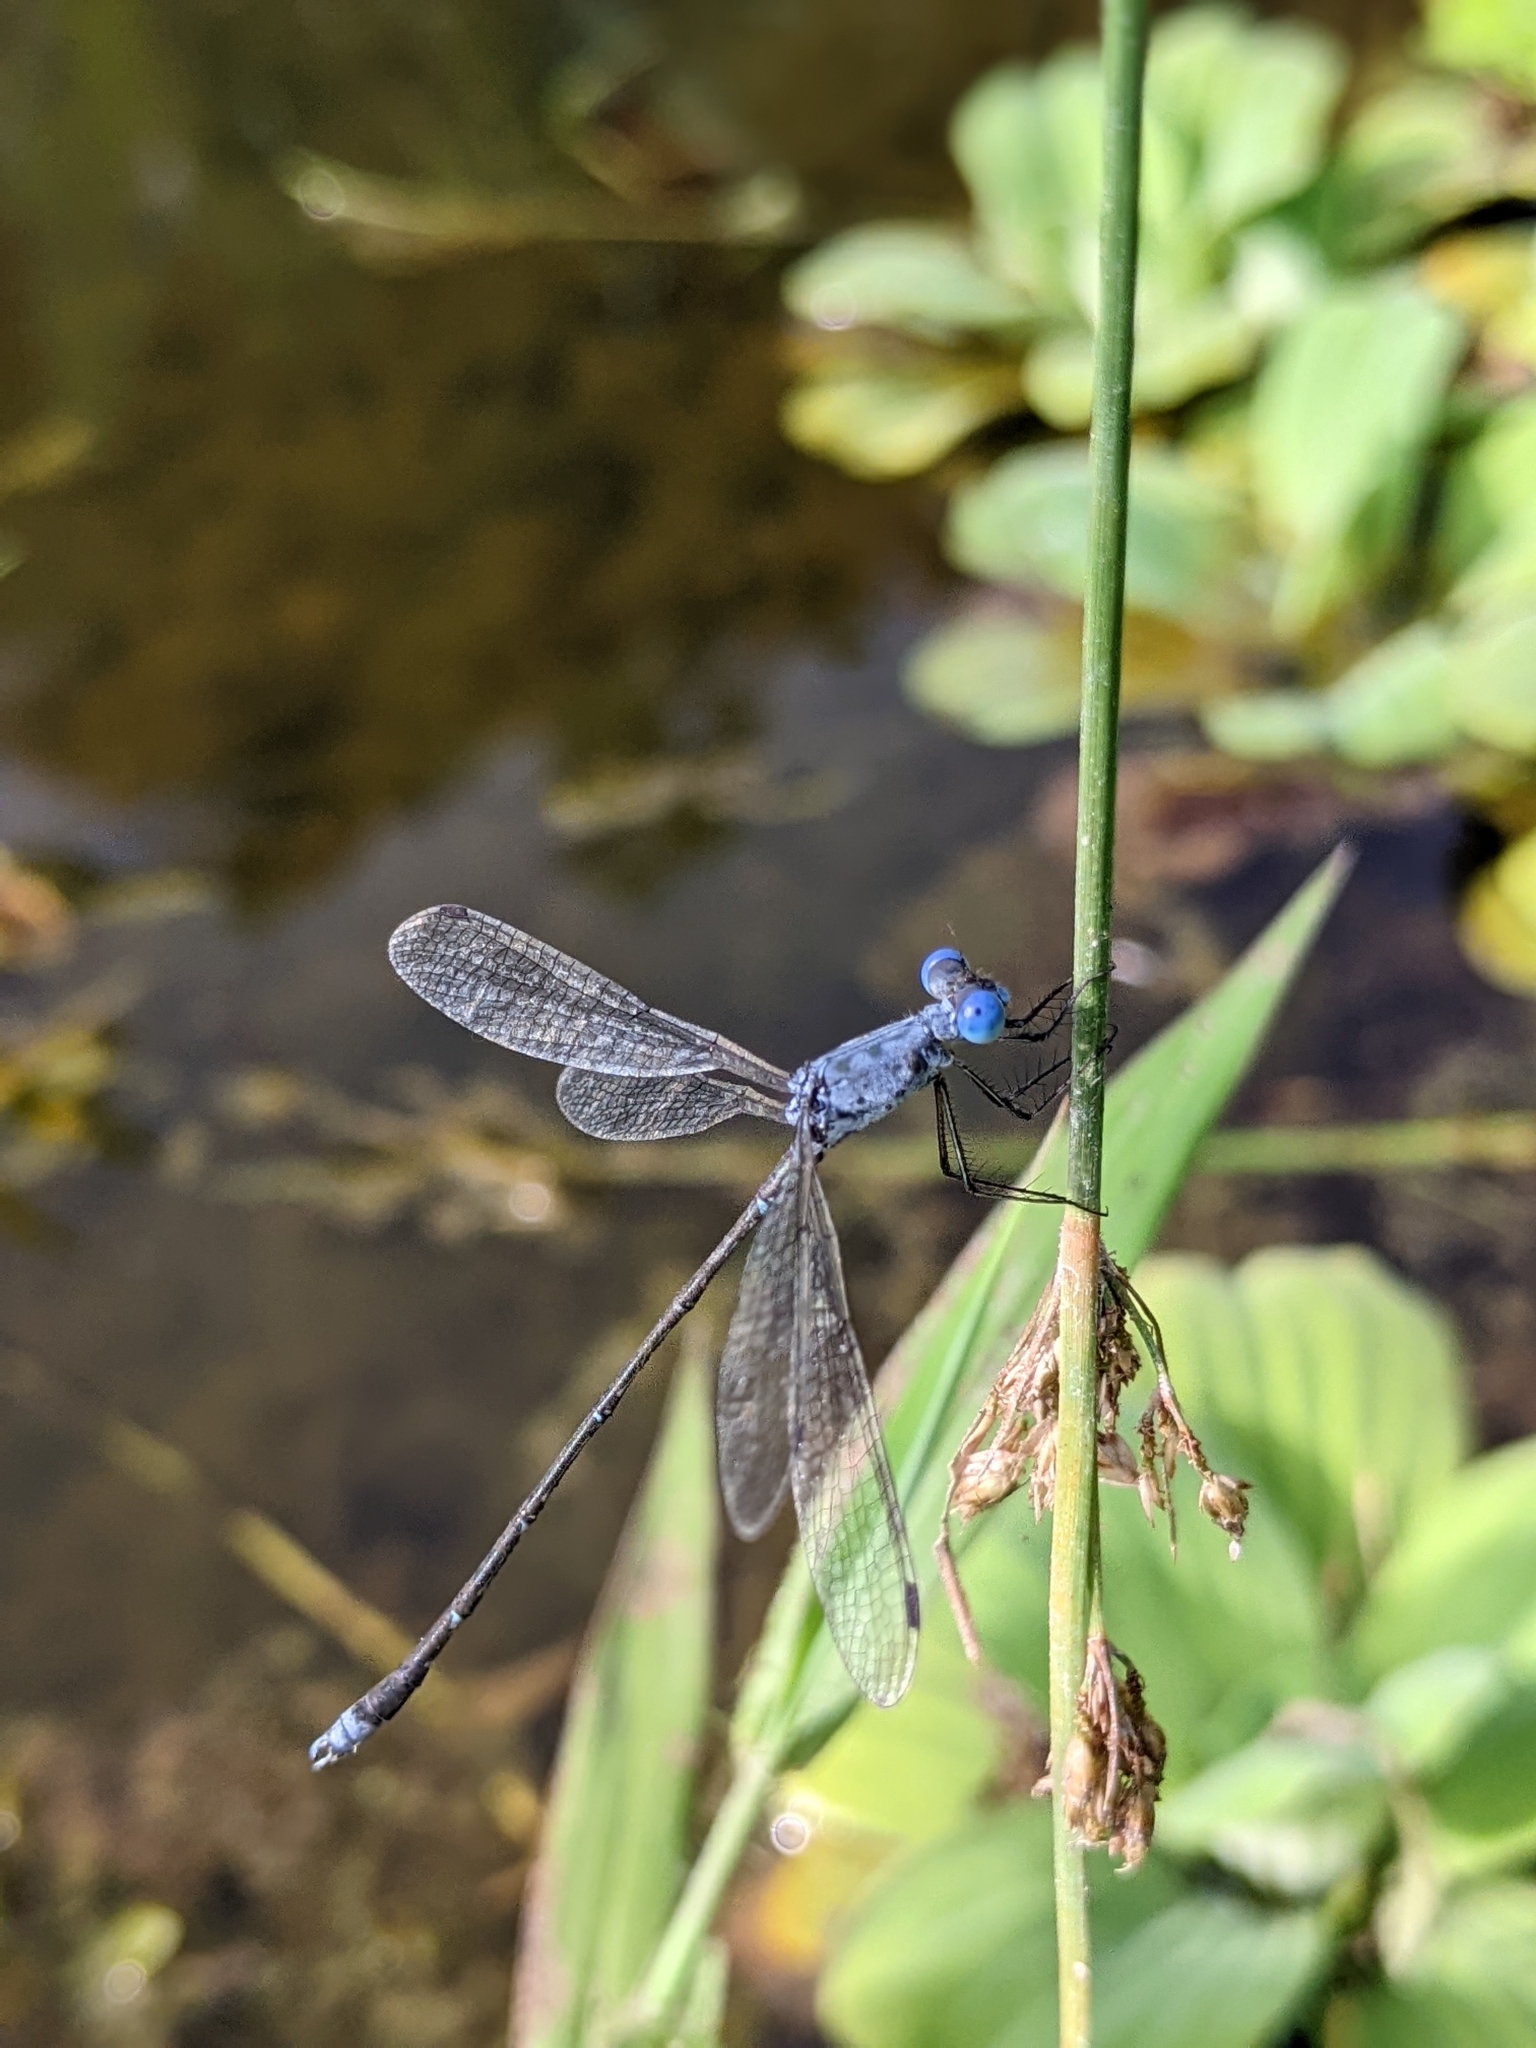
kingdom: Animalia
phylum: Arthropoda
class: Insecta
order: Odonata
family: Lestidae
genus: Lestes
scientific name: Lestes praemorsus
